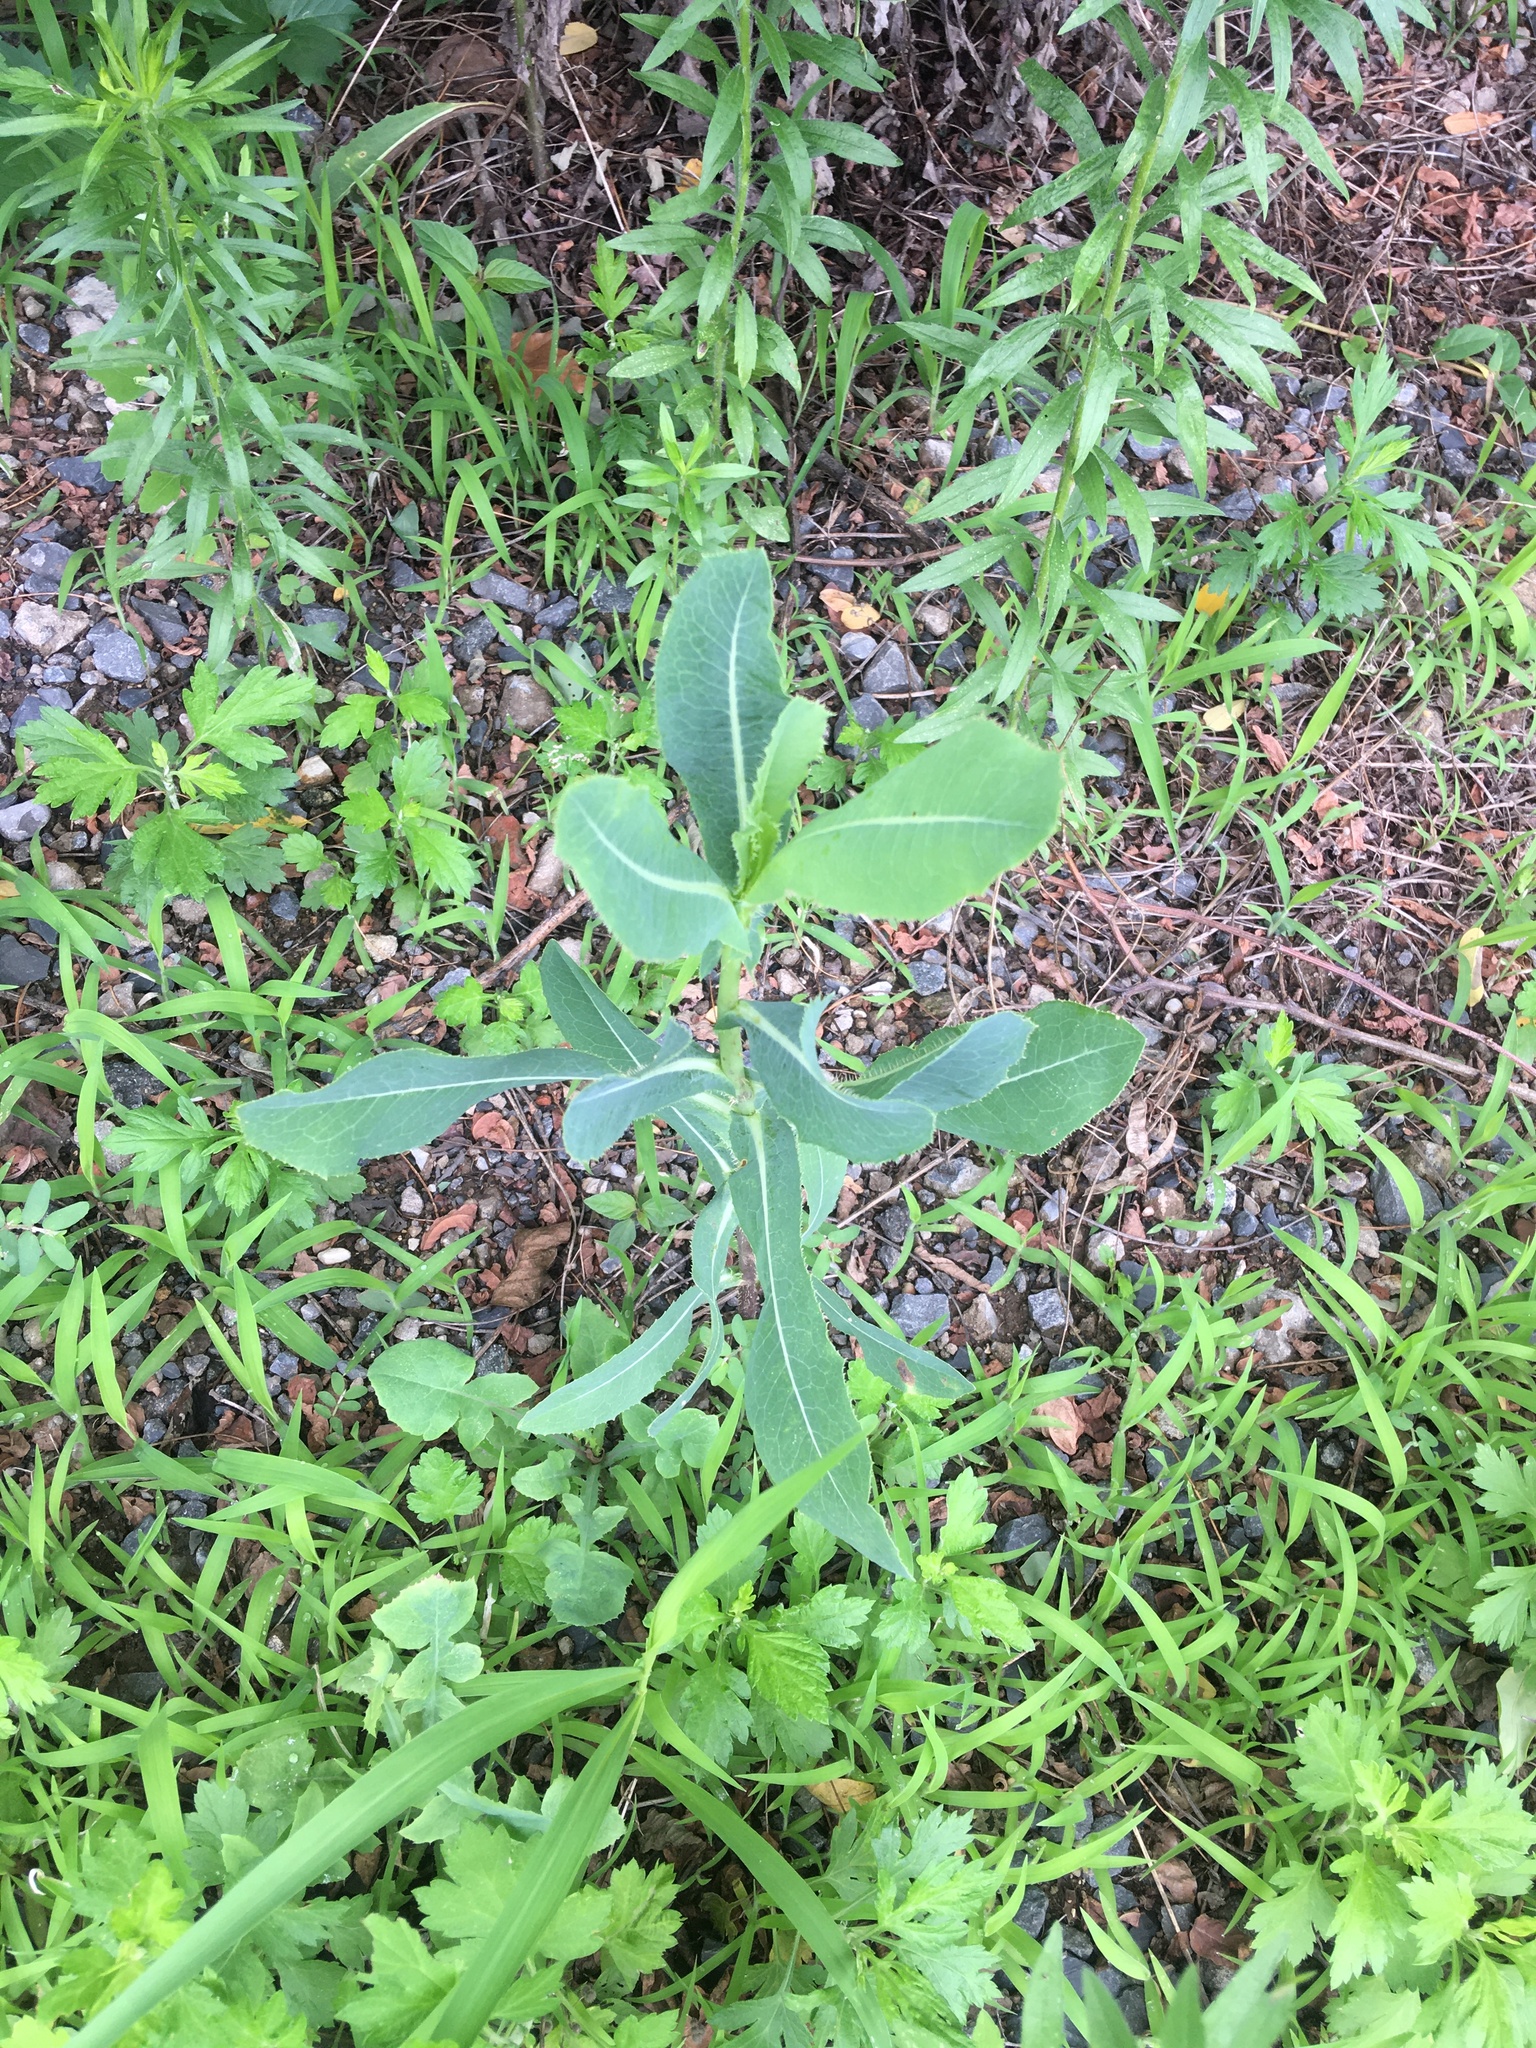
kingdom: Plantae
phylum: Tracheophyta
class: Magnoliopsida
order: Asterales
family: Asteraceae
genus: Lactuca
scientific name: Lactuca serriola
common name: Prickly lettuce
